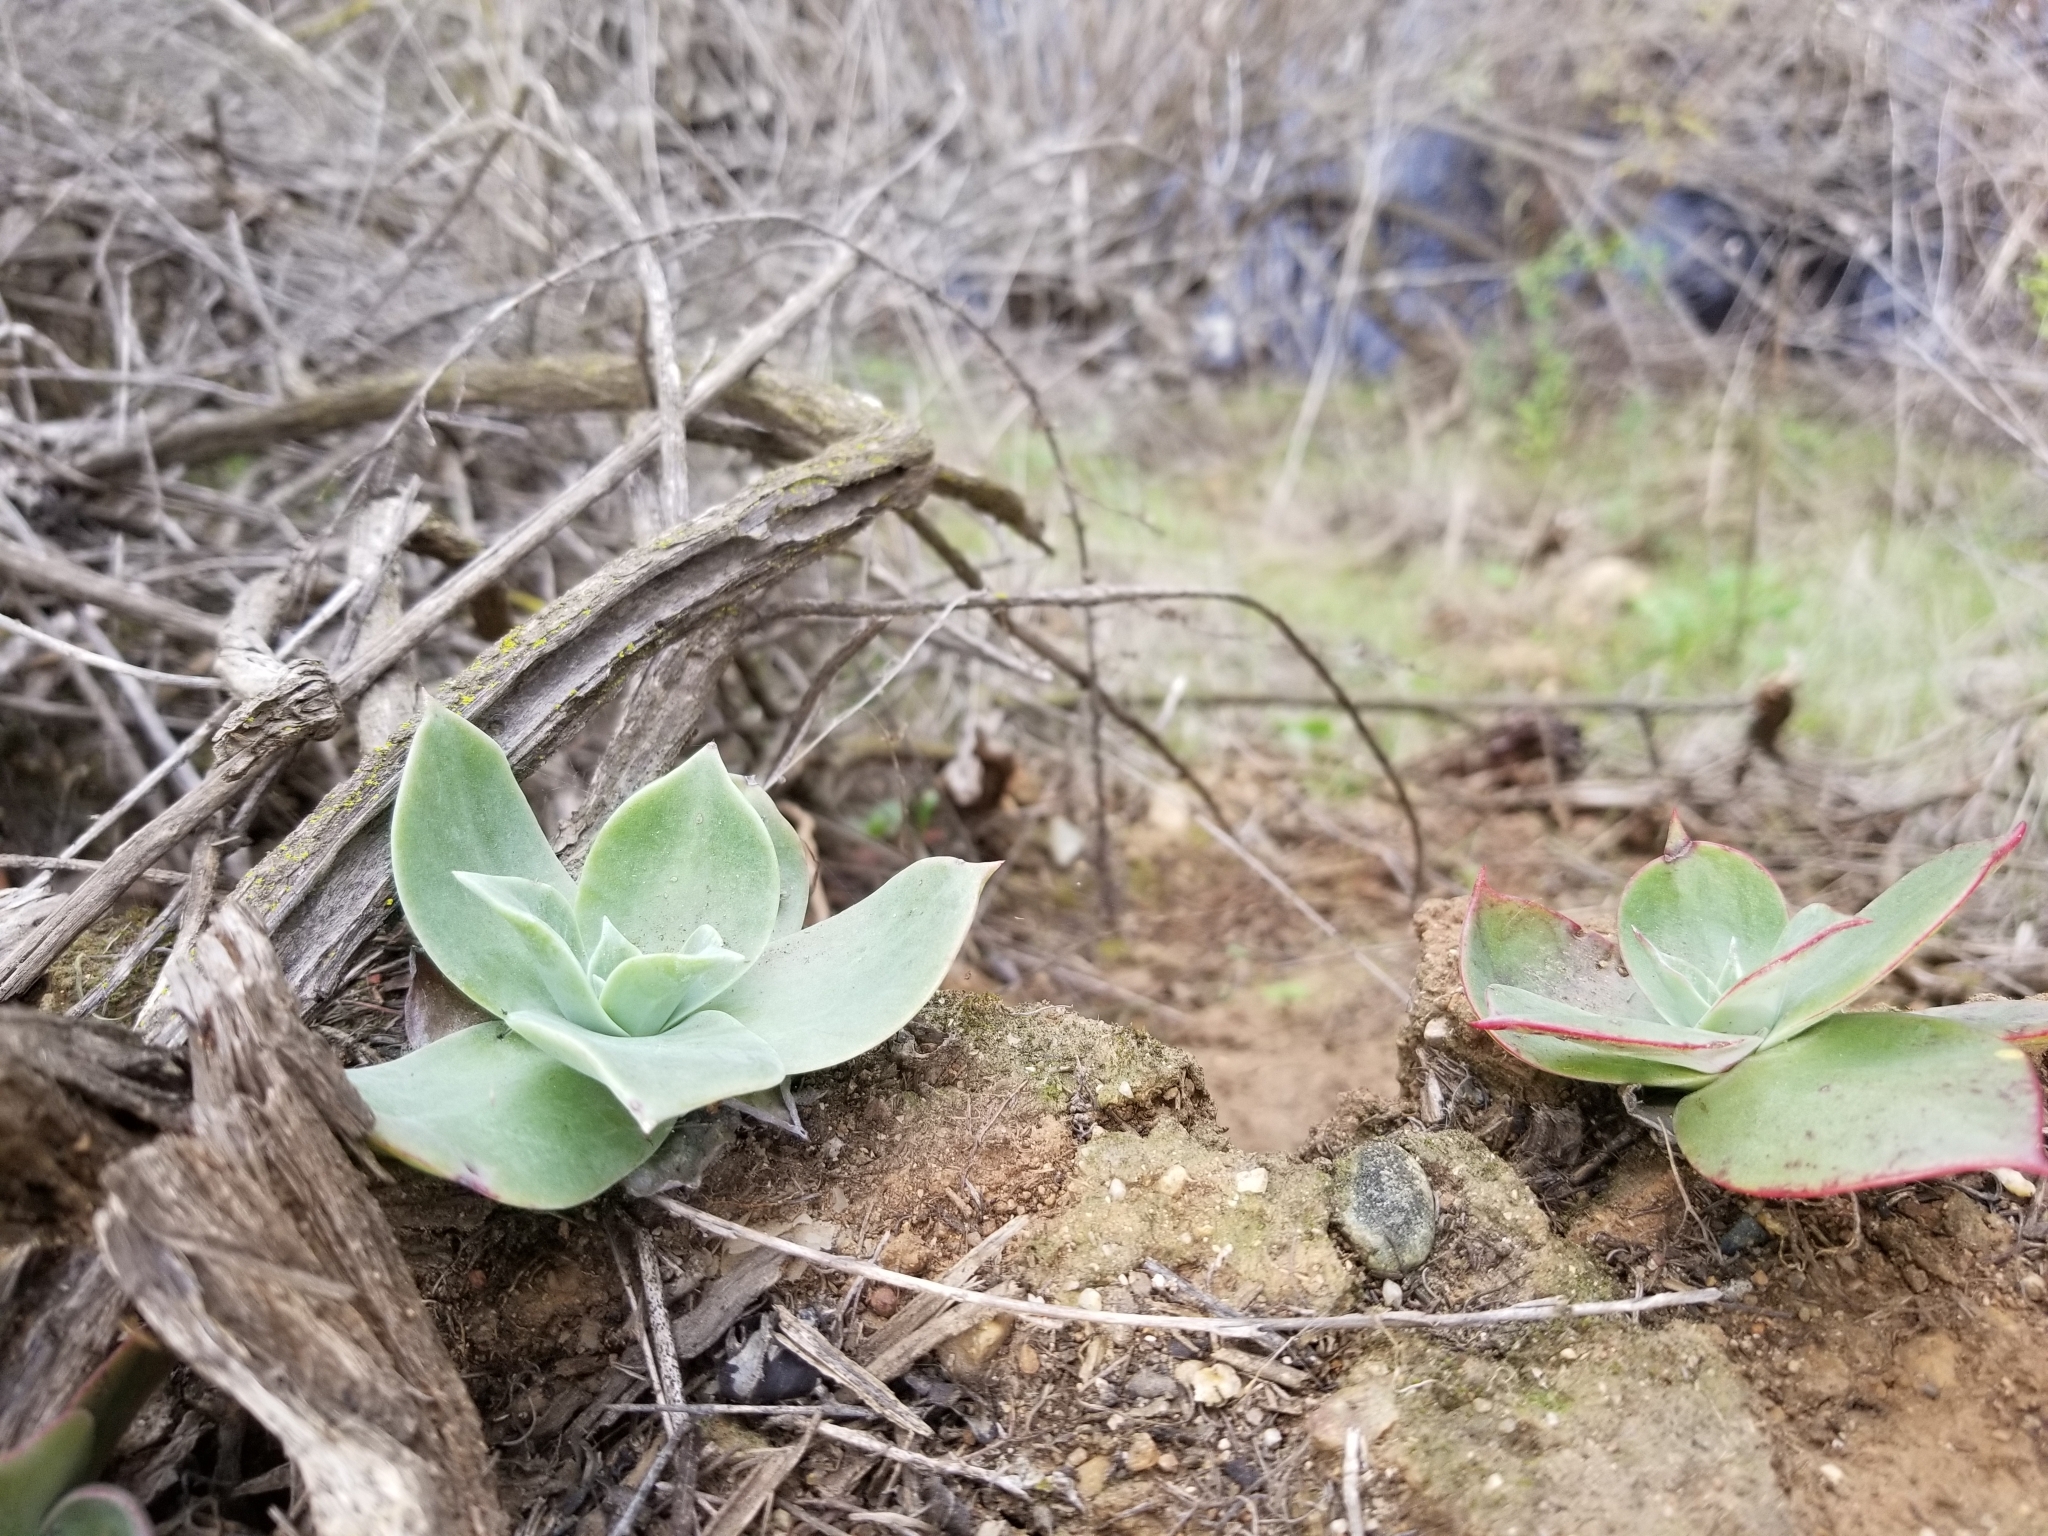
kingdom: Plantae
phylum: Tracheophyta
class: Magnoliopsida
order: Saxifragales
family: Crassulaceae
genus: Dudleya
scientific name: Dudleya pulverulenta
